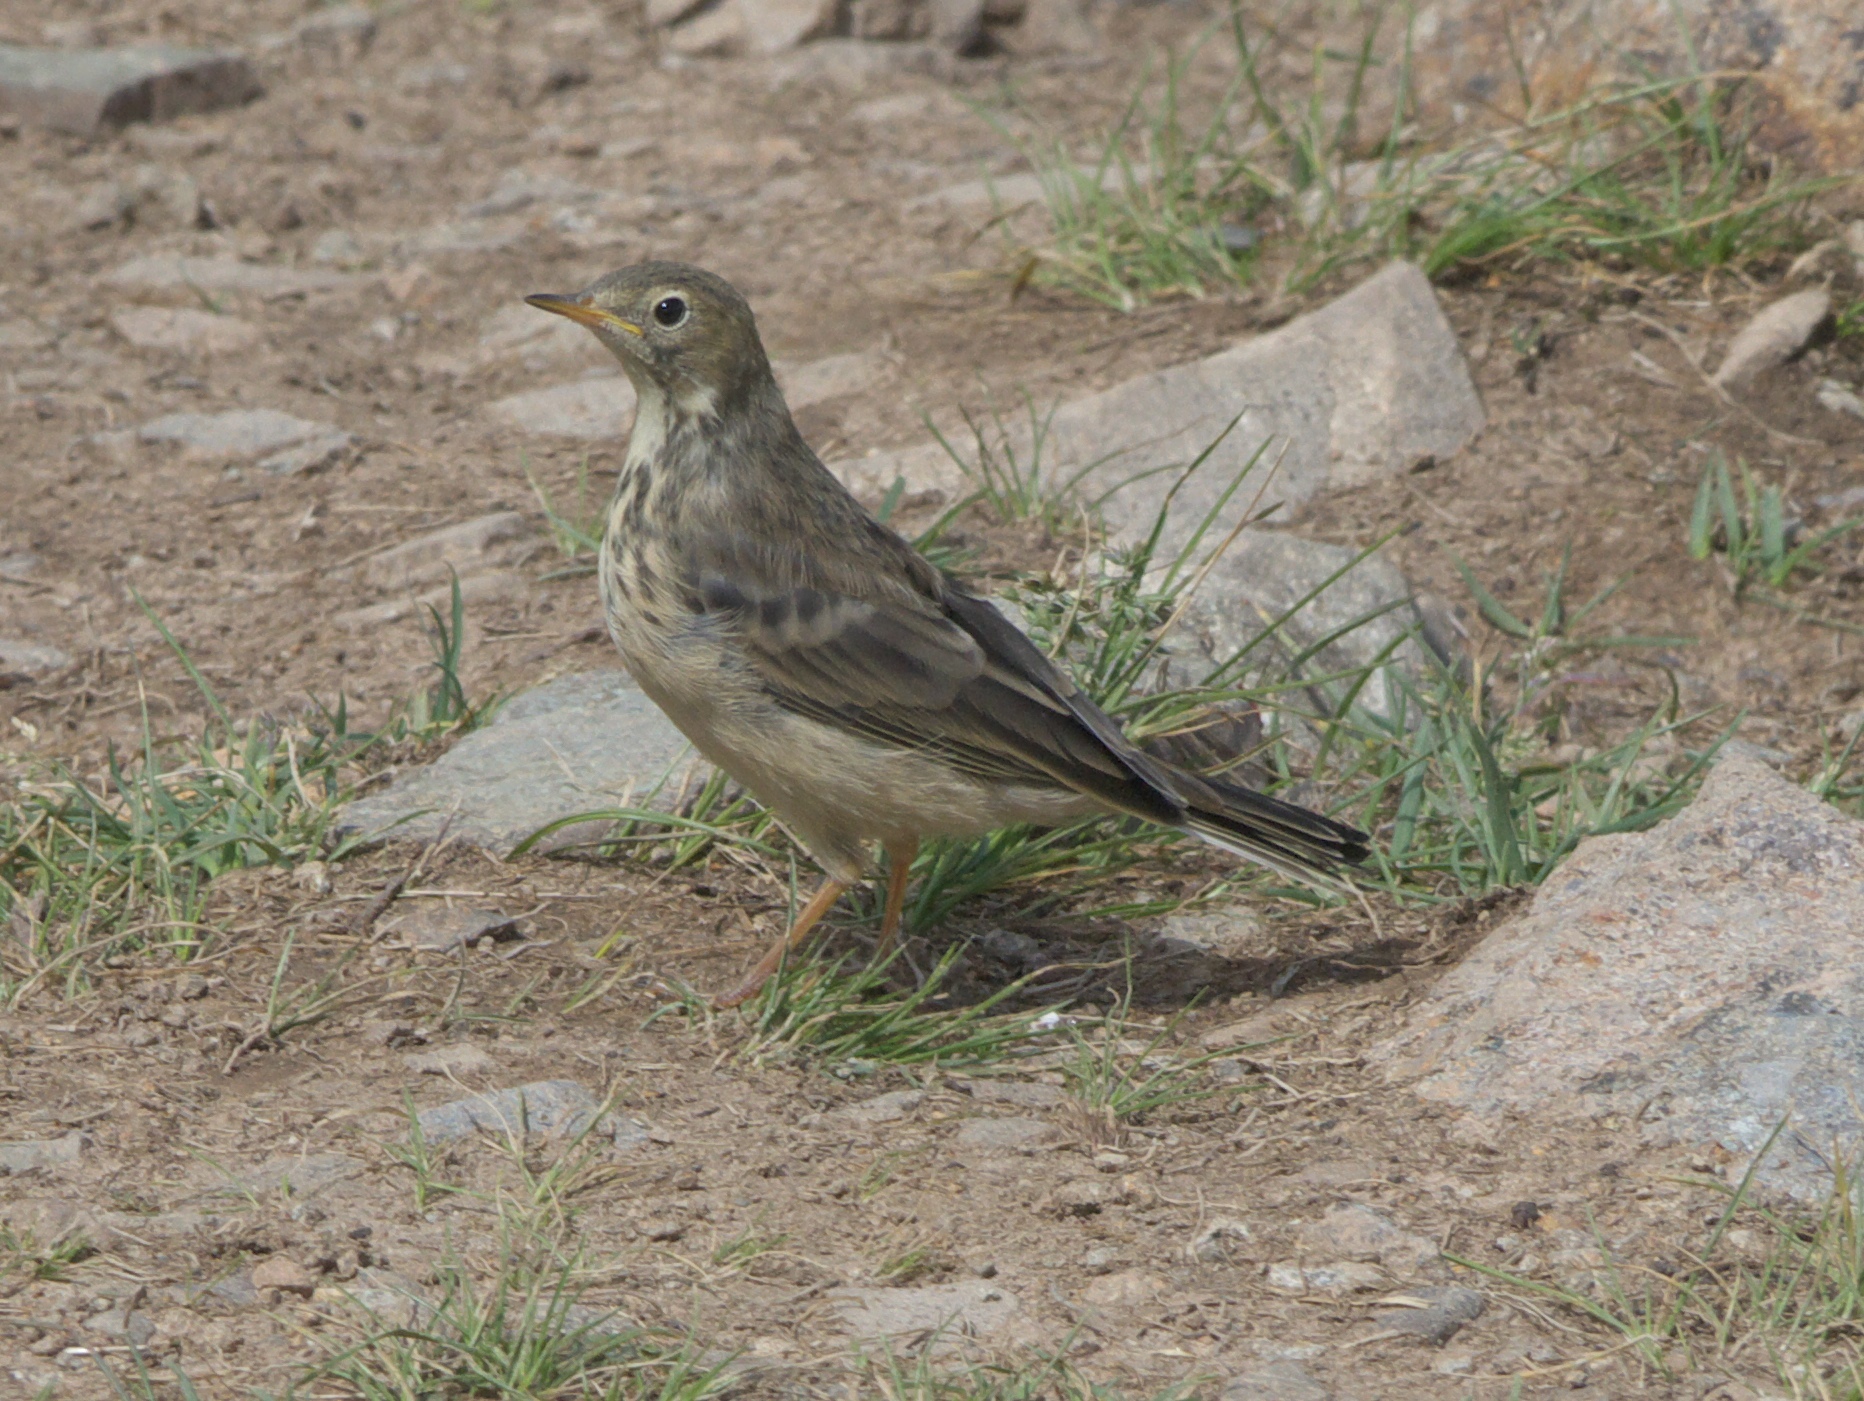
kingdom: Animalia
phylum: Chordata
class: Aves
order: Passeriformes
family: Motacillidae
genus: Anthus
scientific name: Anthus rubescens
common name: Buff-bellied pipit
